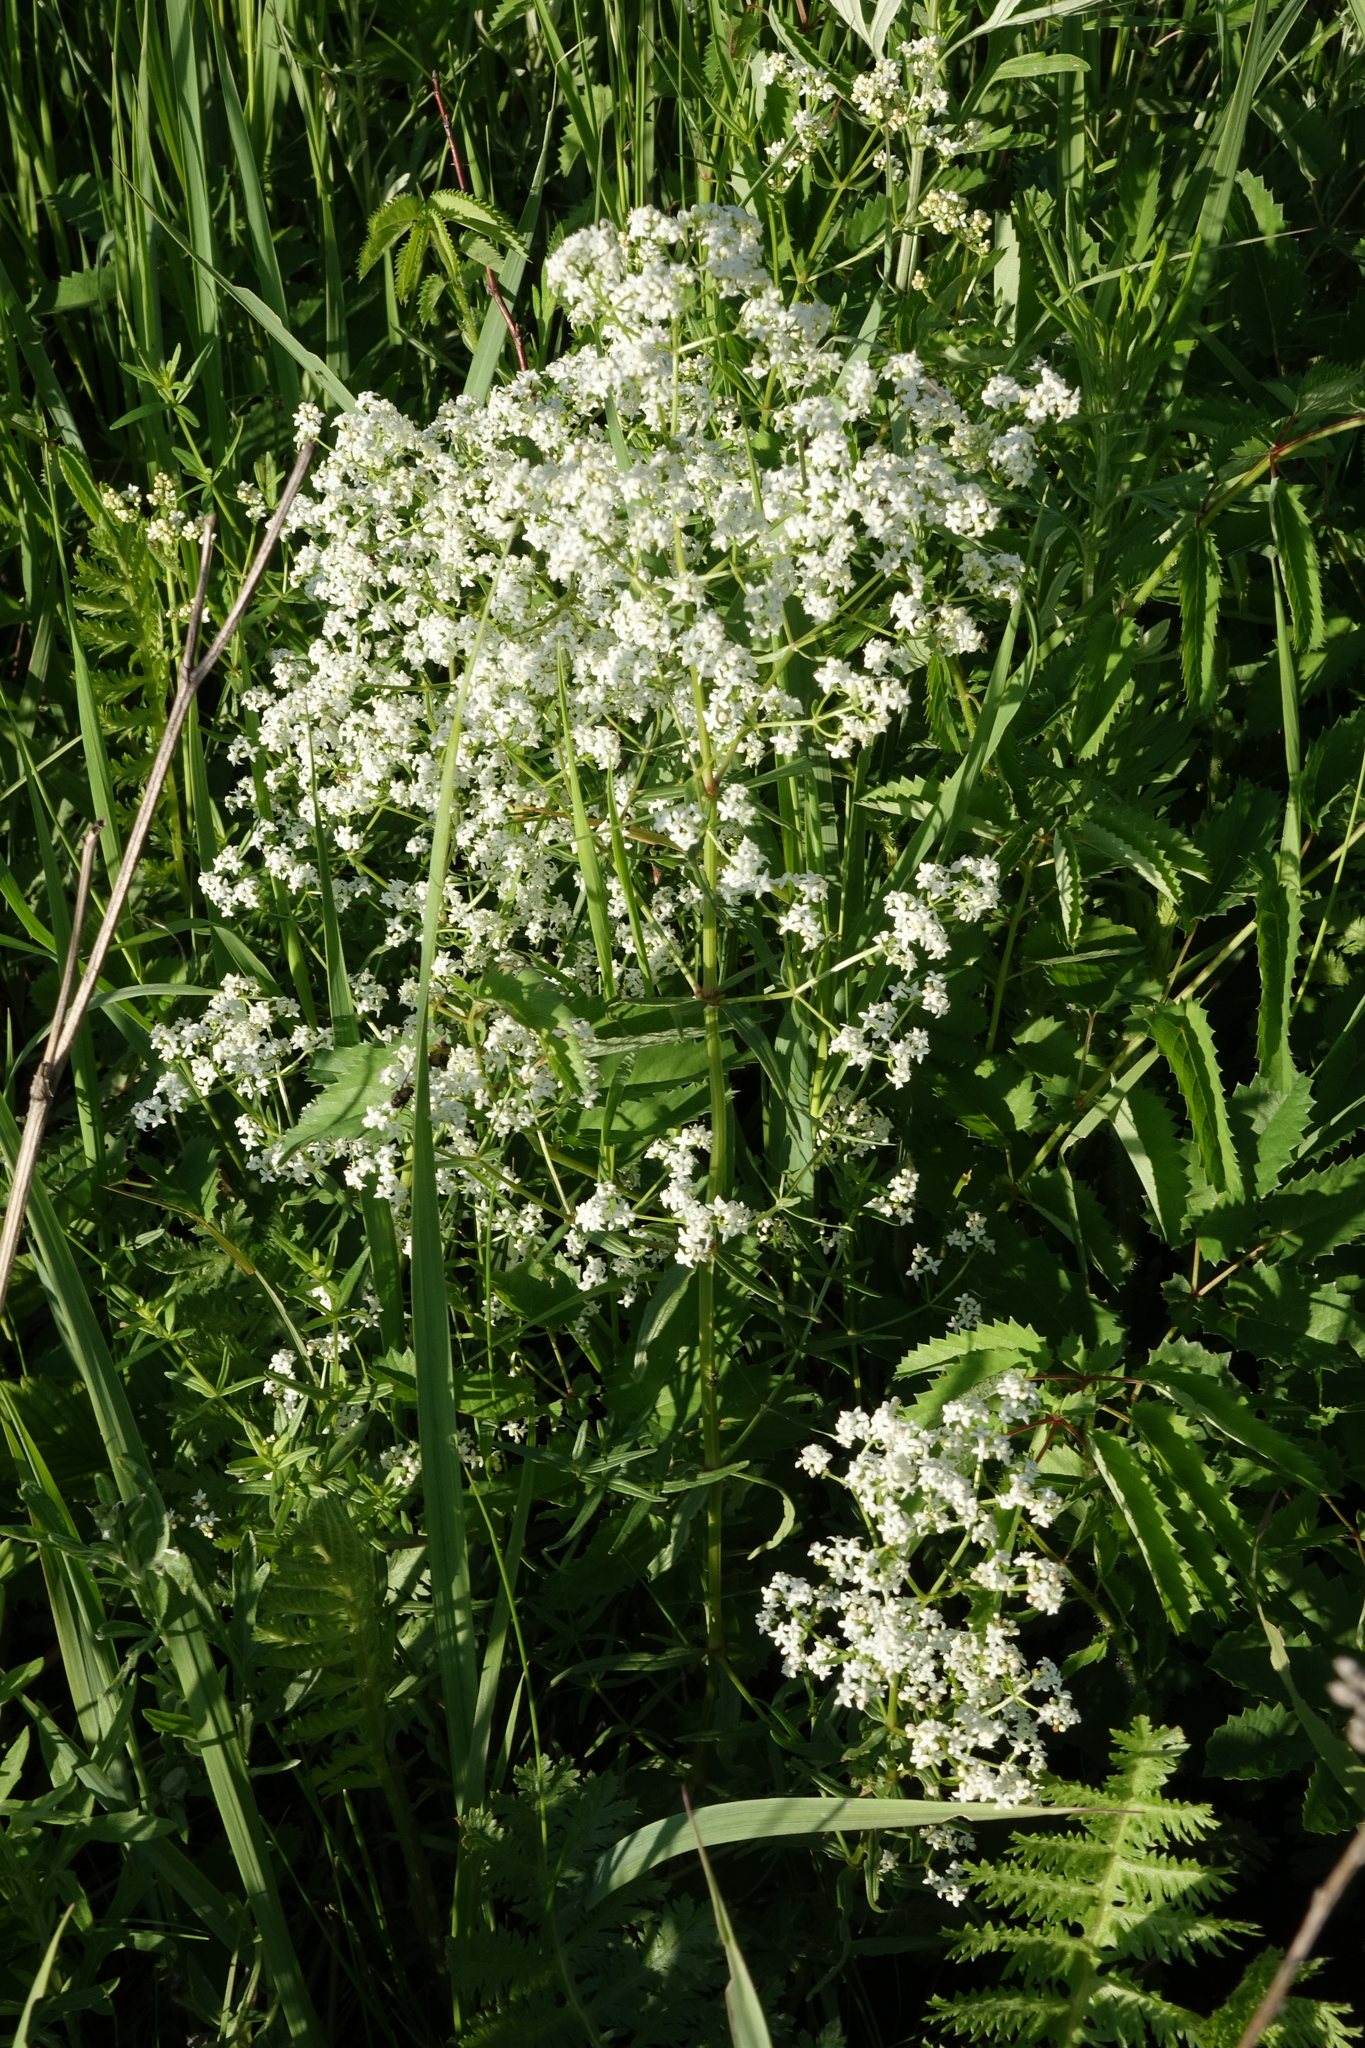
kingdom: Plantae
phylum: Tracheophyta
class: Magnoliopsida
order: Gentianales
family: Rubiaceae
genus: Galium
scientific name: Galium boreale
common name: Northern bedstraw
